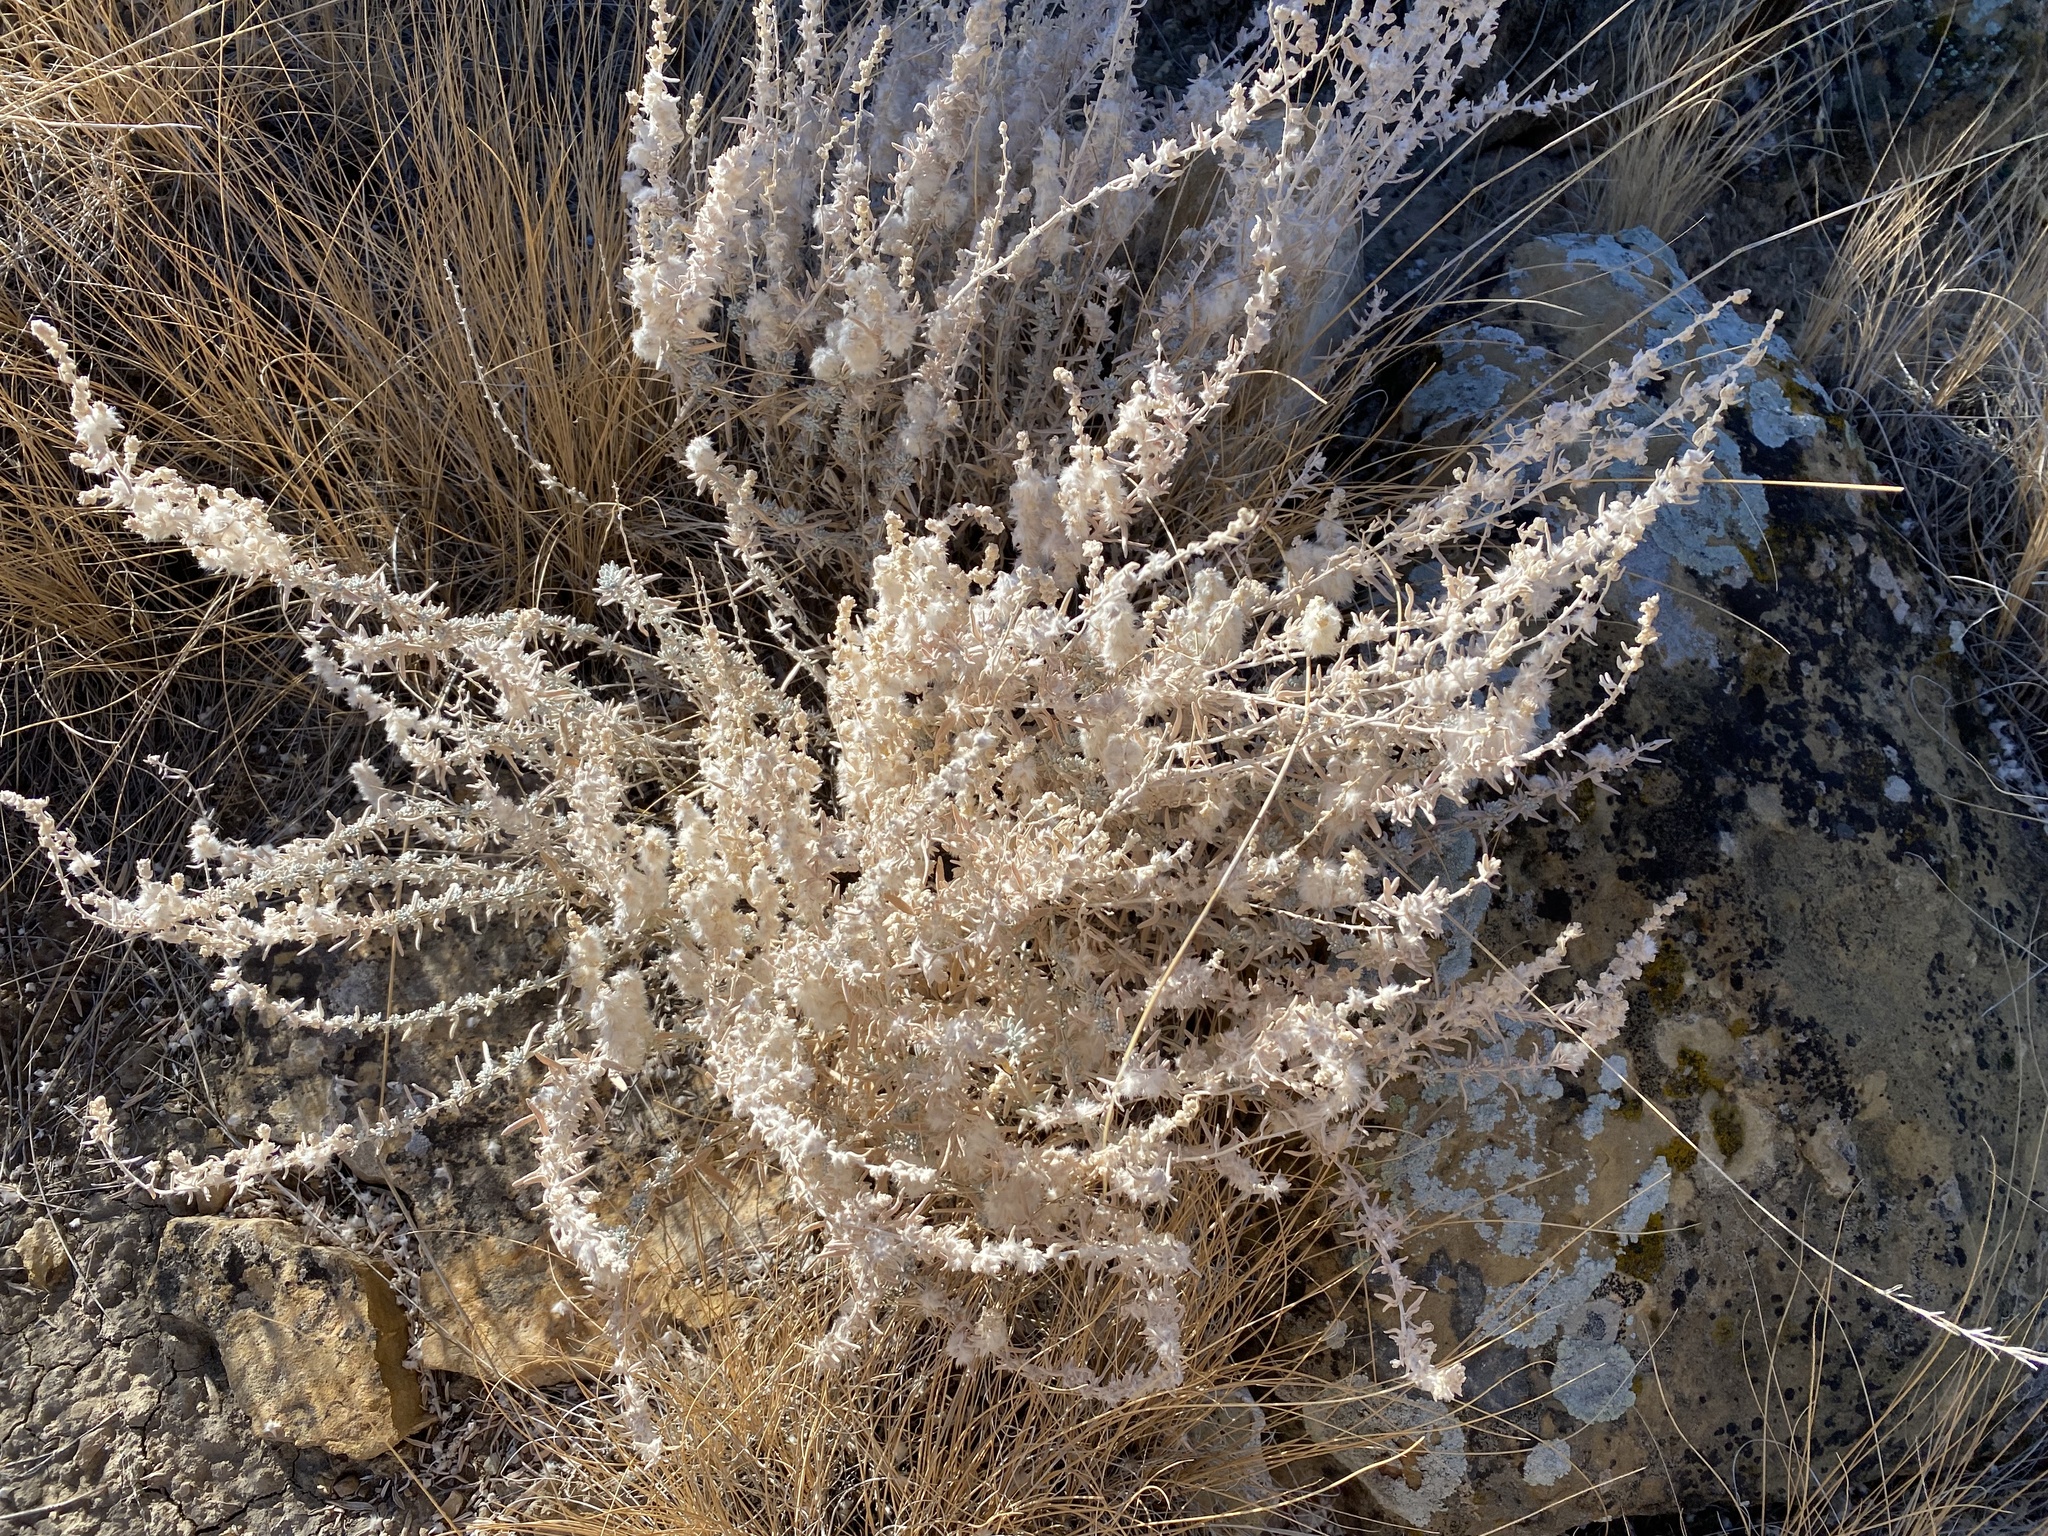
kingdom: Plantae
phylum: Tracheophyta
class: Magnoliopsida
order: Caryophyllales
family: Amaranthaceae
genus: Krascheninnikovia
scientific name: Krascheninnikovia lanata
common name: Winterfat
